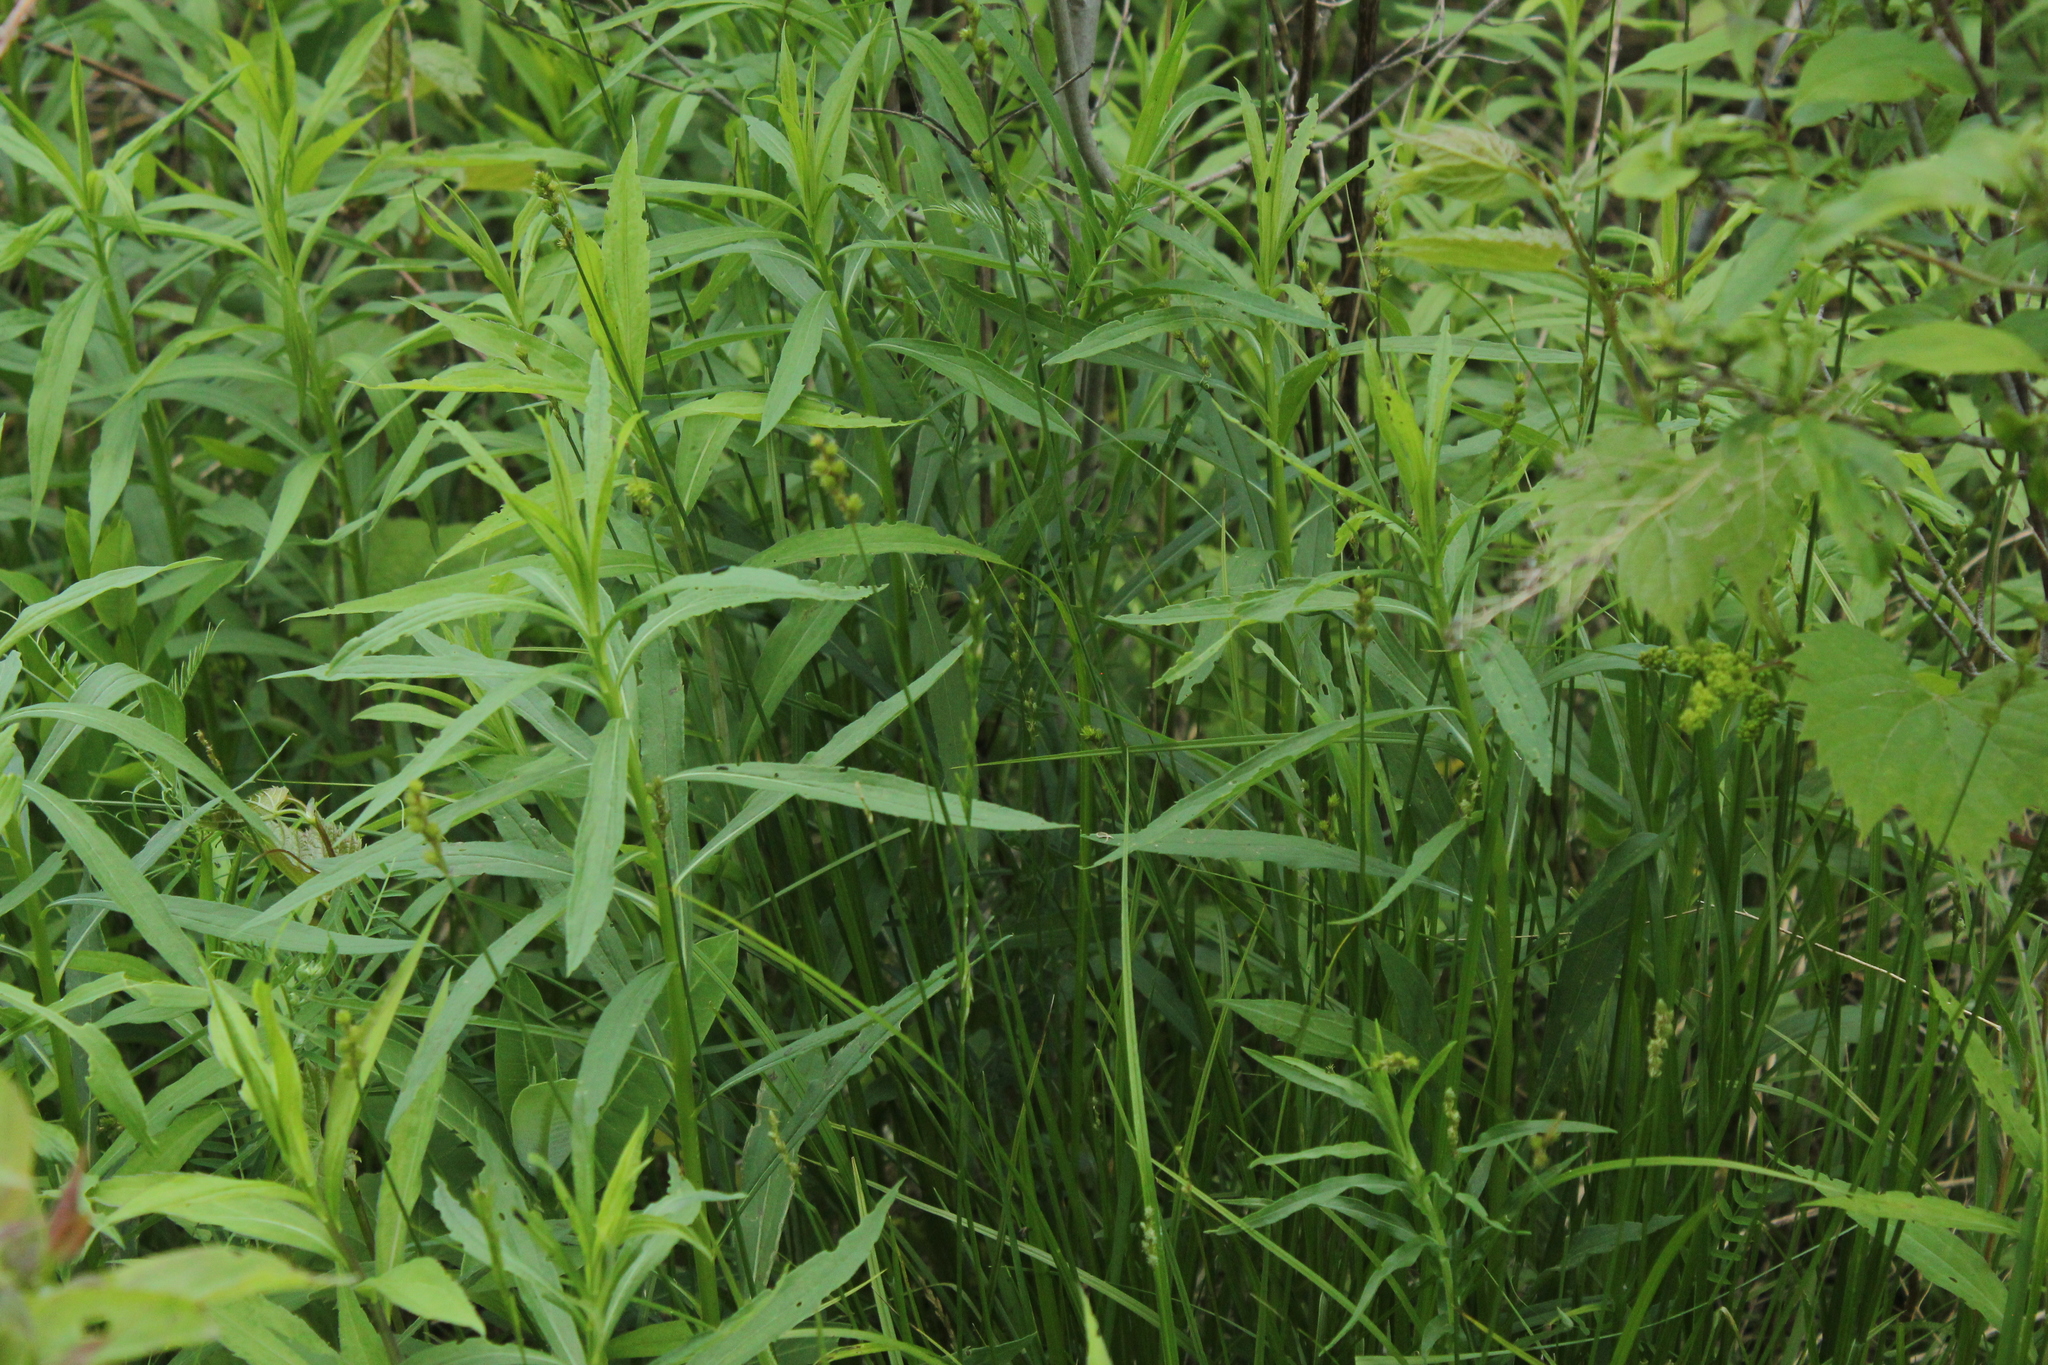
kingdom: Plantae
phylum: Tracheophyta
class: Liliopsida
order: Poales
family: Cyperaceae
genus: Carex
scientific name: Carex normalis
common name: Greater straw sedge
